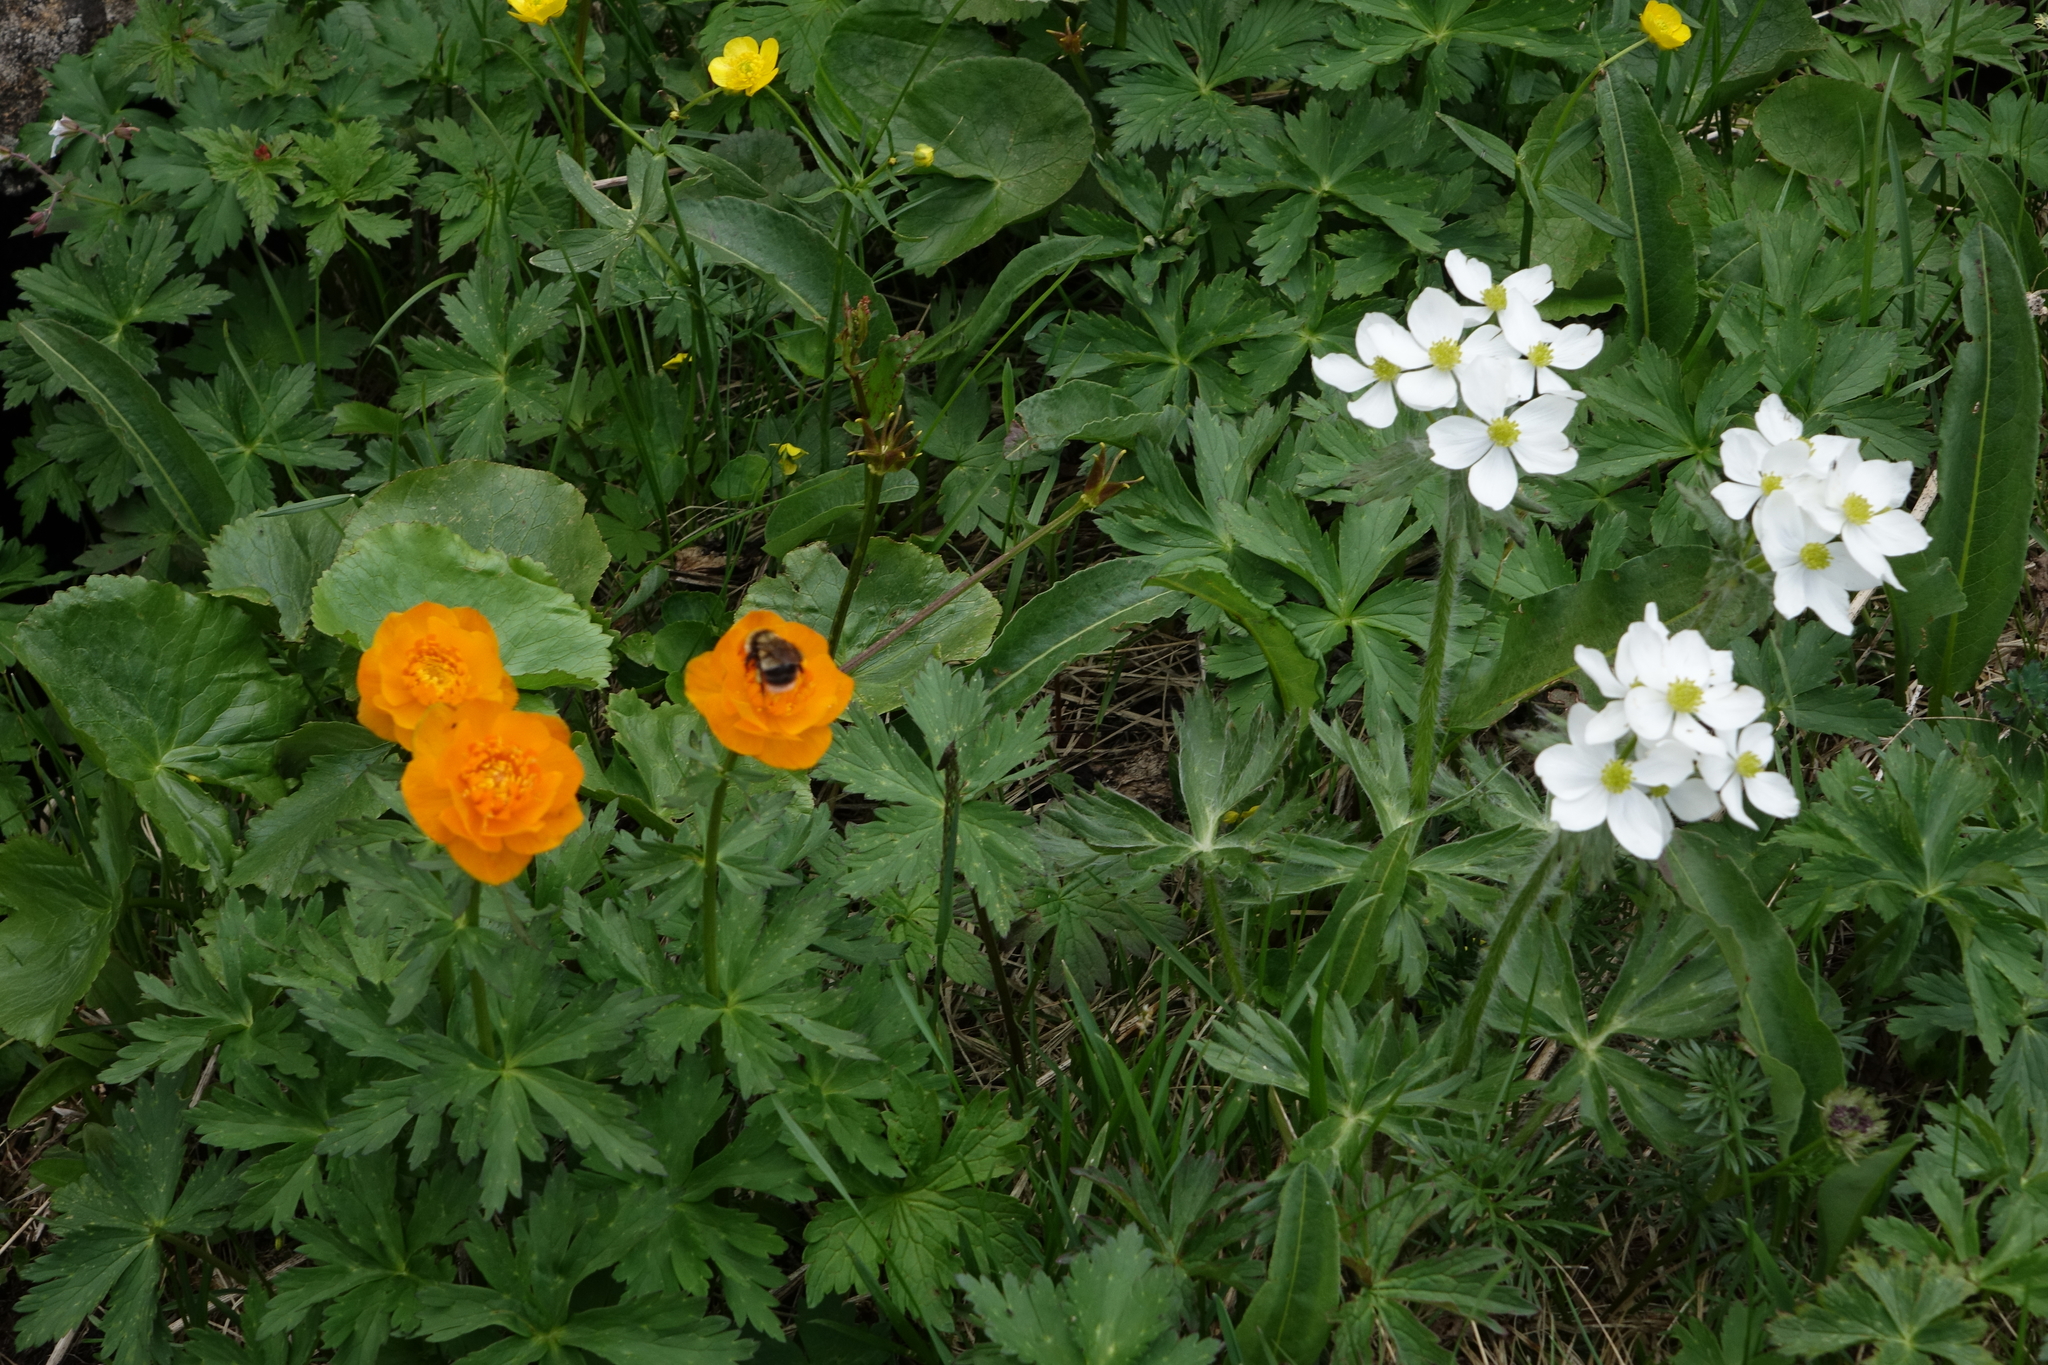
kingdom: Plantae
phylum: Tracheophyta
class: Magnoliopsida
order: Ranunculales
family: Ranunculaceae
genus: Anemonastrum
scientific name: Anemonastrum narcissiflorum
